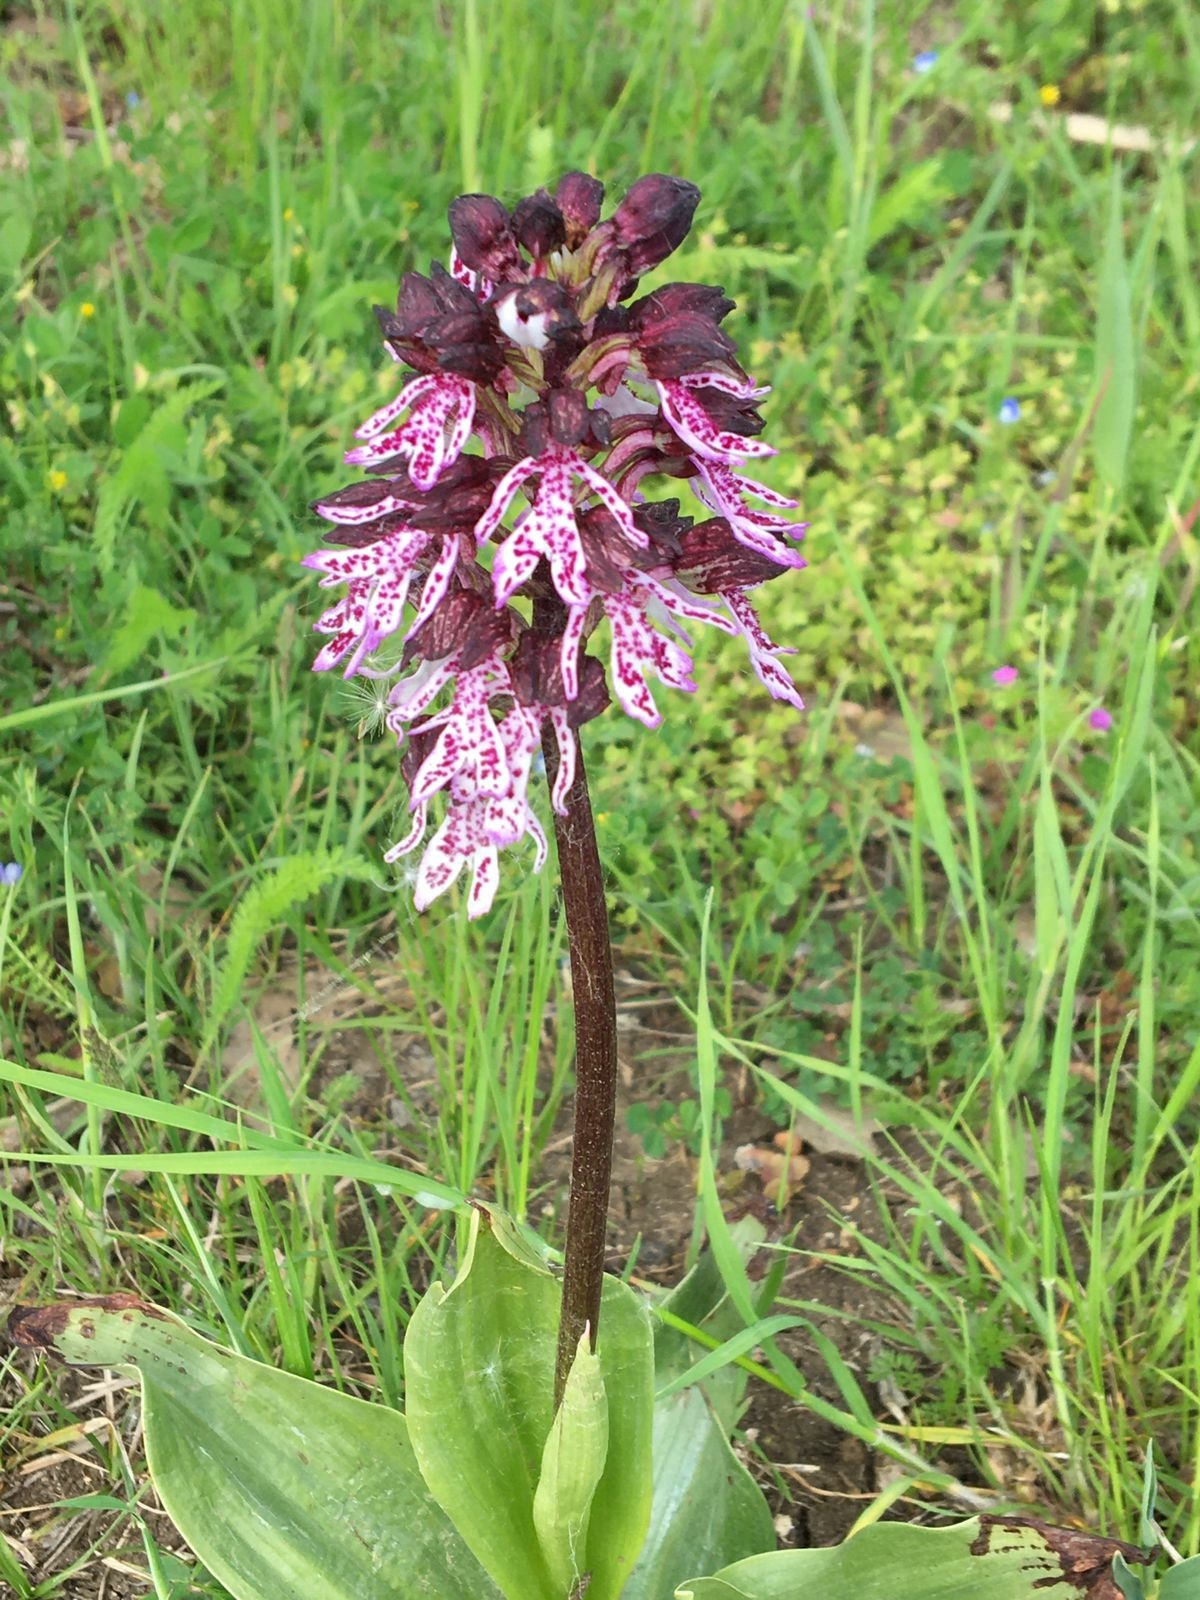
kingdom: Plantae
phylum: Tracheophyta
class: Liliopsida
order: Asparagales
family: Orchidaceae
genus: Orchis
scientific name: Orchis purpurea
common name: Lady orchid
